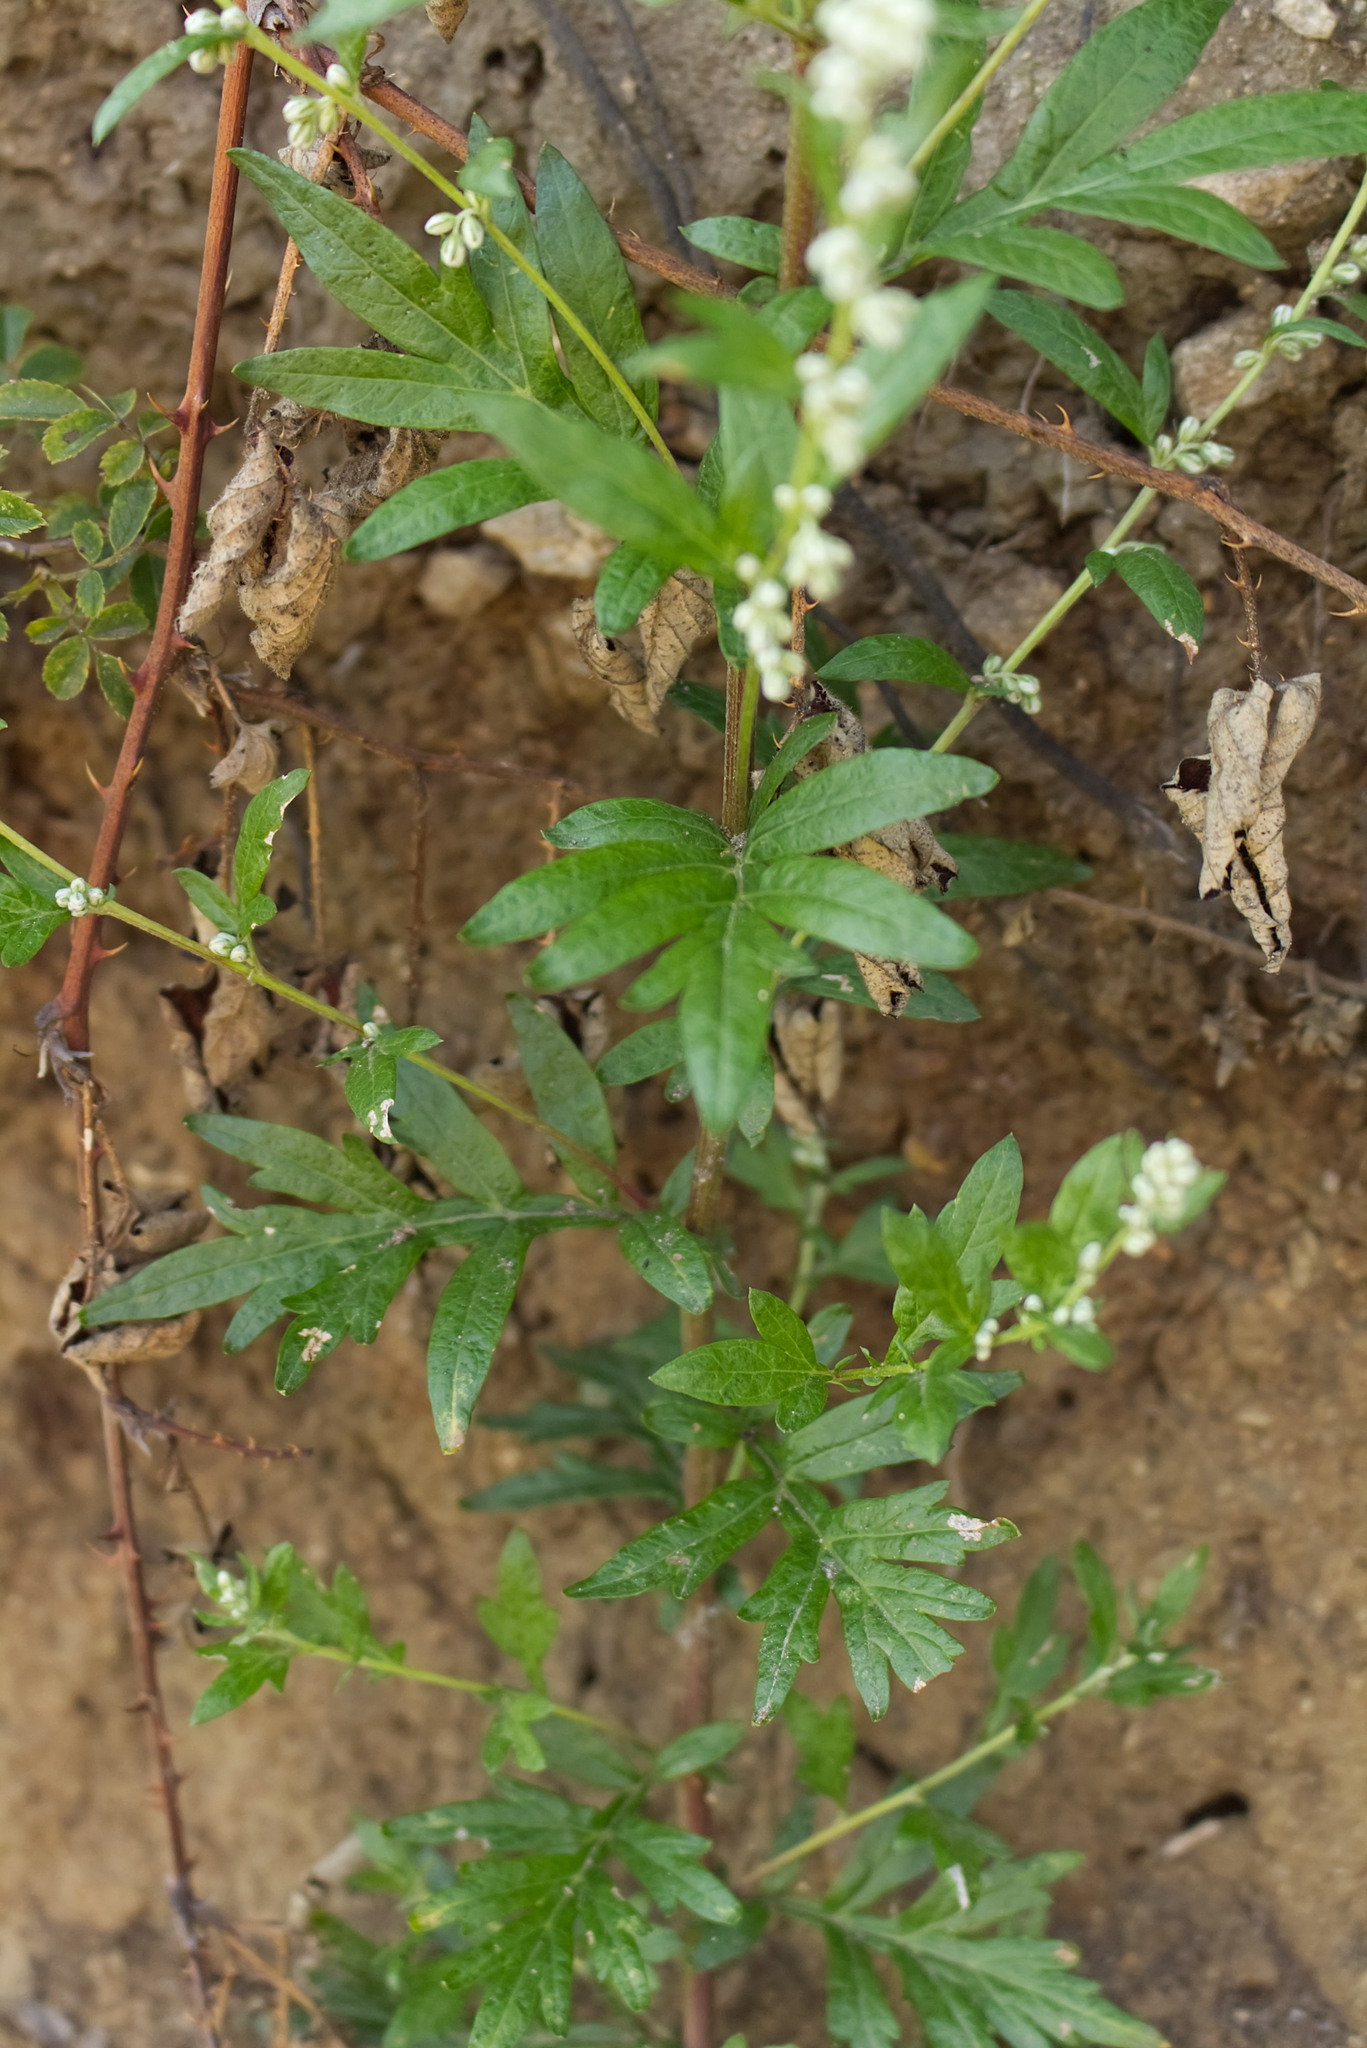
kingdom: Plantae
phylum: Tracheophyta
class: Magnoliopsida
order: Asterales
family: Asteraceae
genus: Artemisia
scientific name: Artemisia vulgaris
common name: Mugwort
